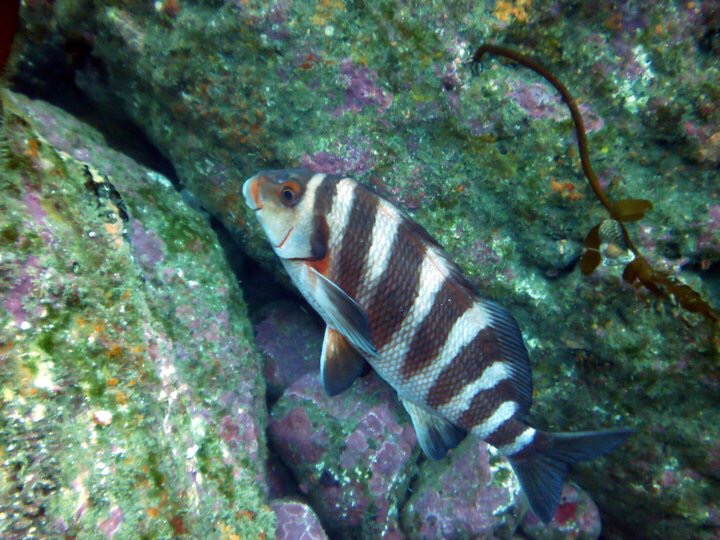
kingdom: Animalia
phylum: Chordata
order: Perciformes
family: Cheilodactylidae
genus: Cheilodactylus
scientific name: Cheilodactylus spectabilis
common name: Red moki
